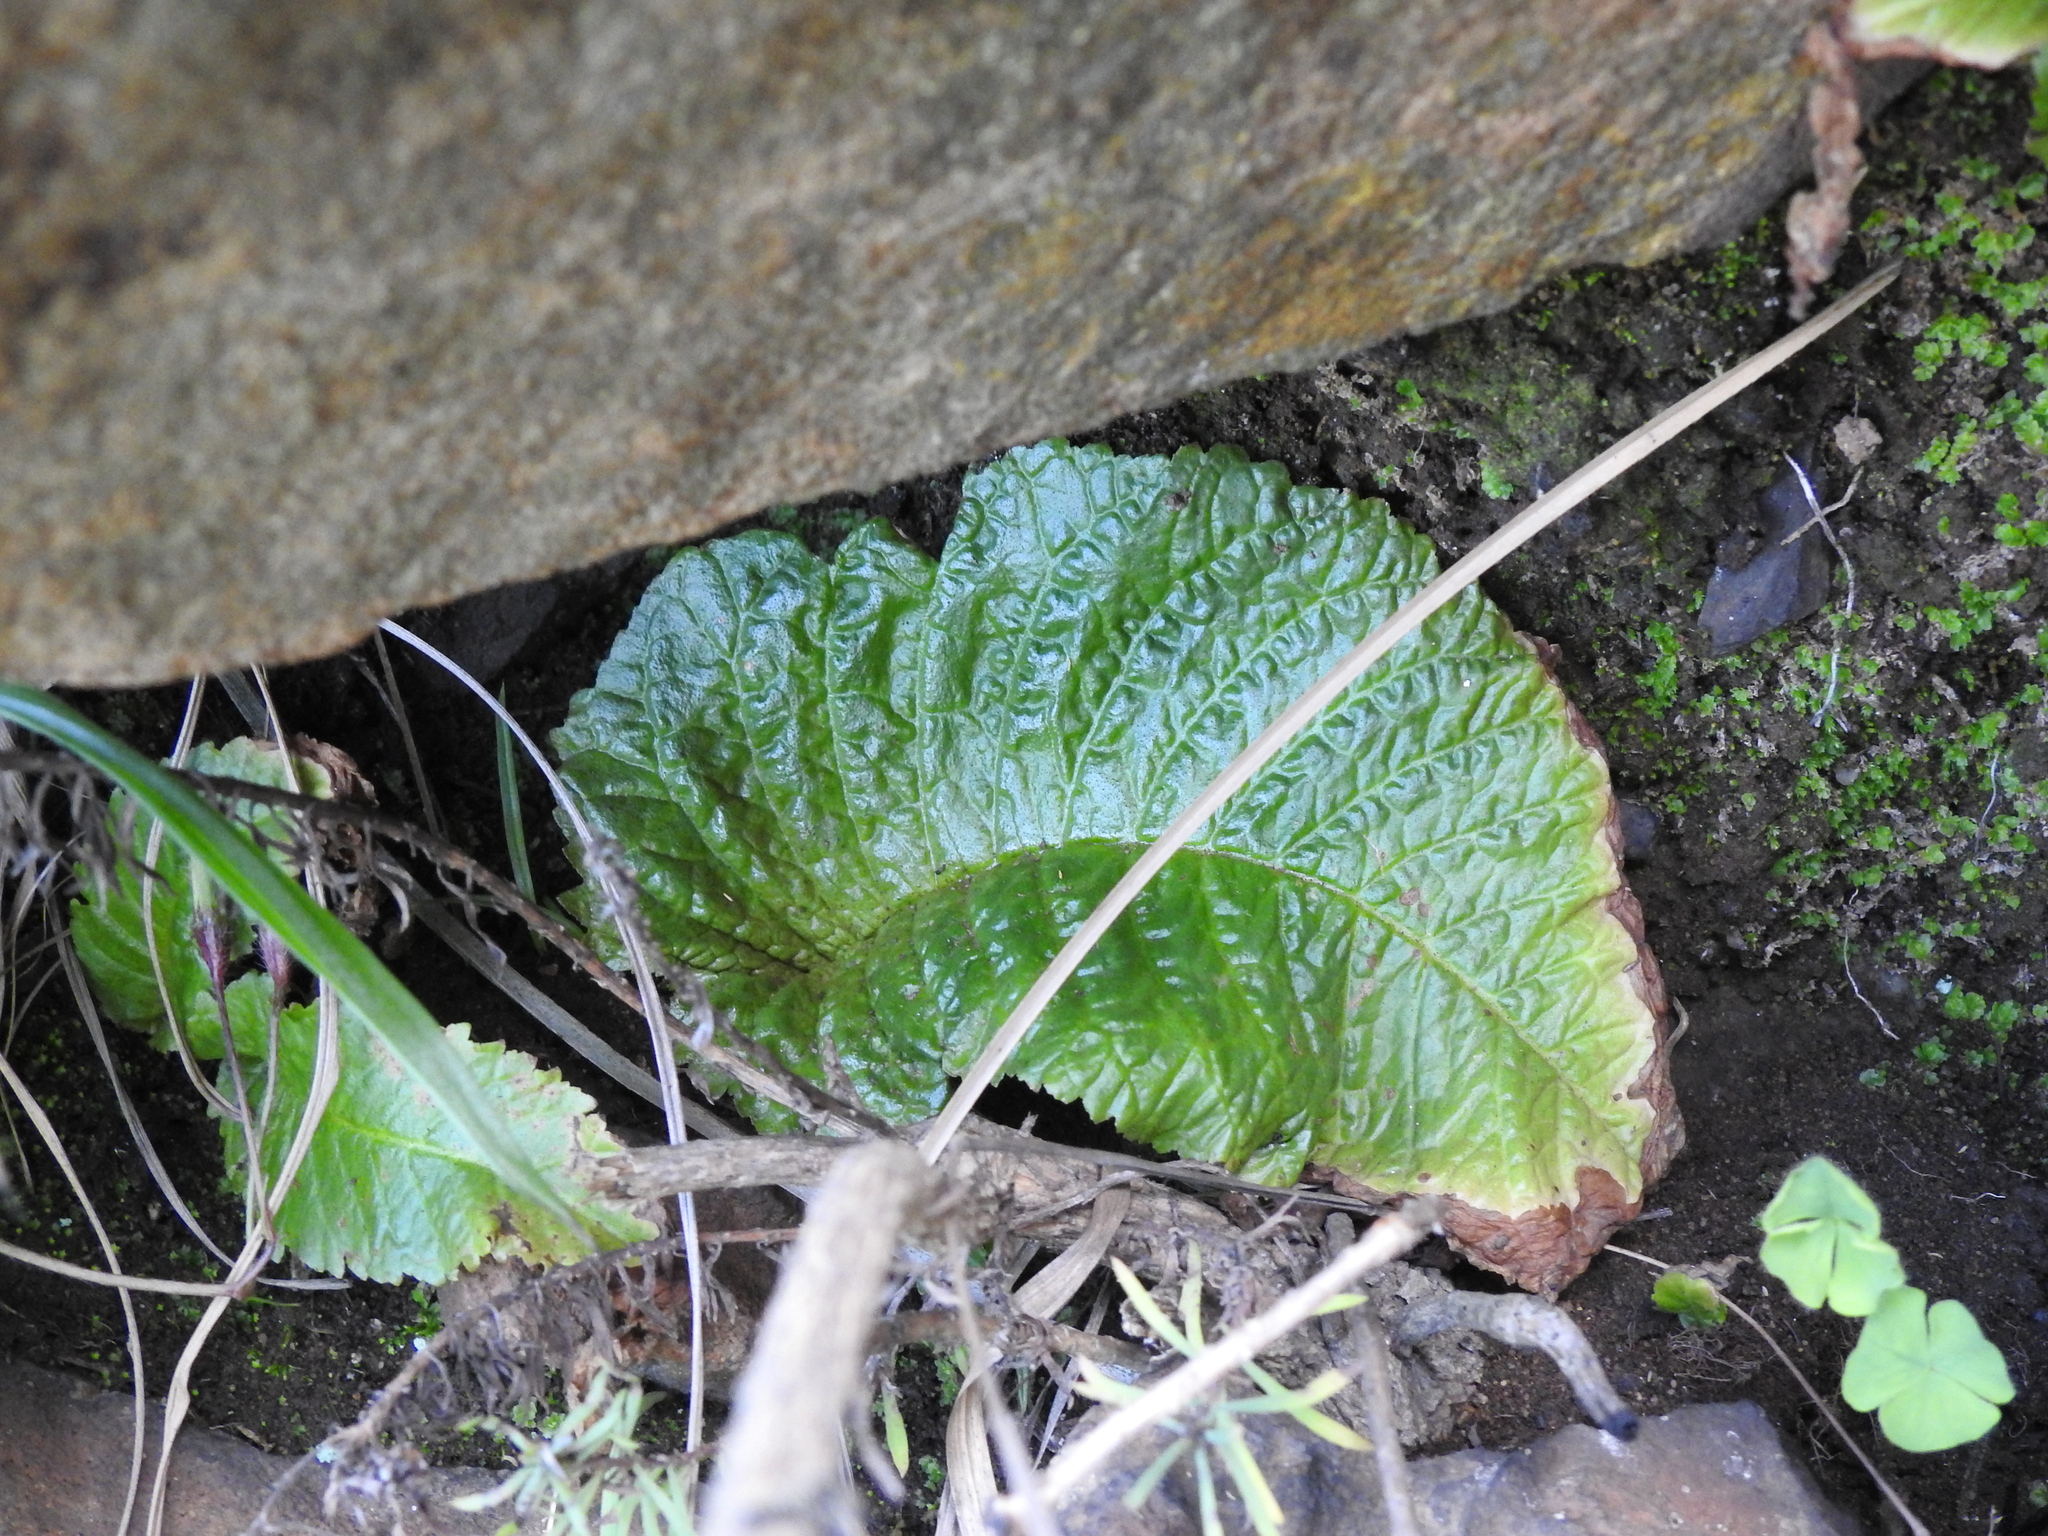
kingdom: Plantae
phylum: Tracheophyta
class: Magnoliopsida
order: Lamiales
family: Gesneriaceae
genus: Streptocarpus
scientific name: Streptocarpus denticulatus
